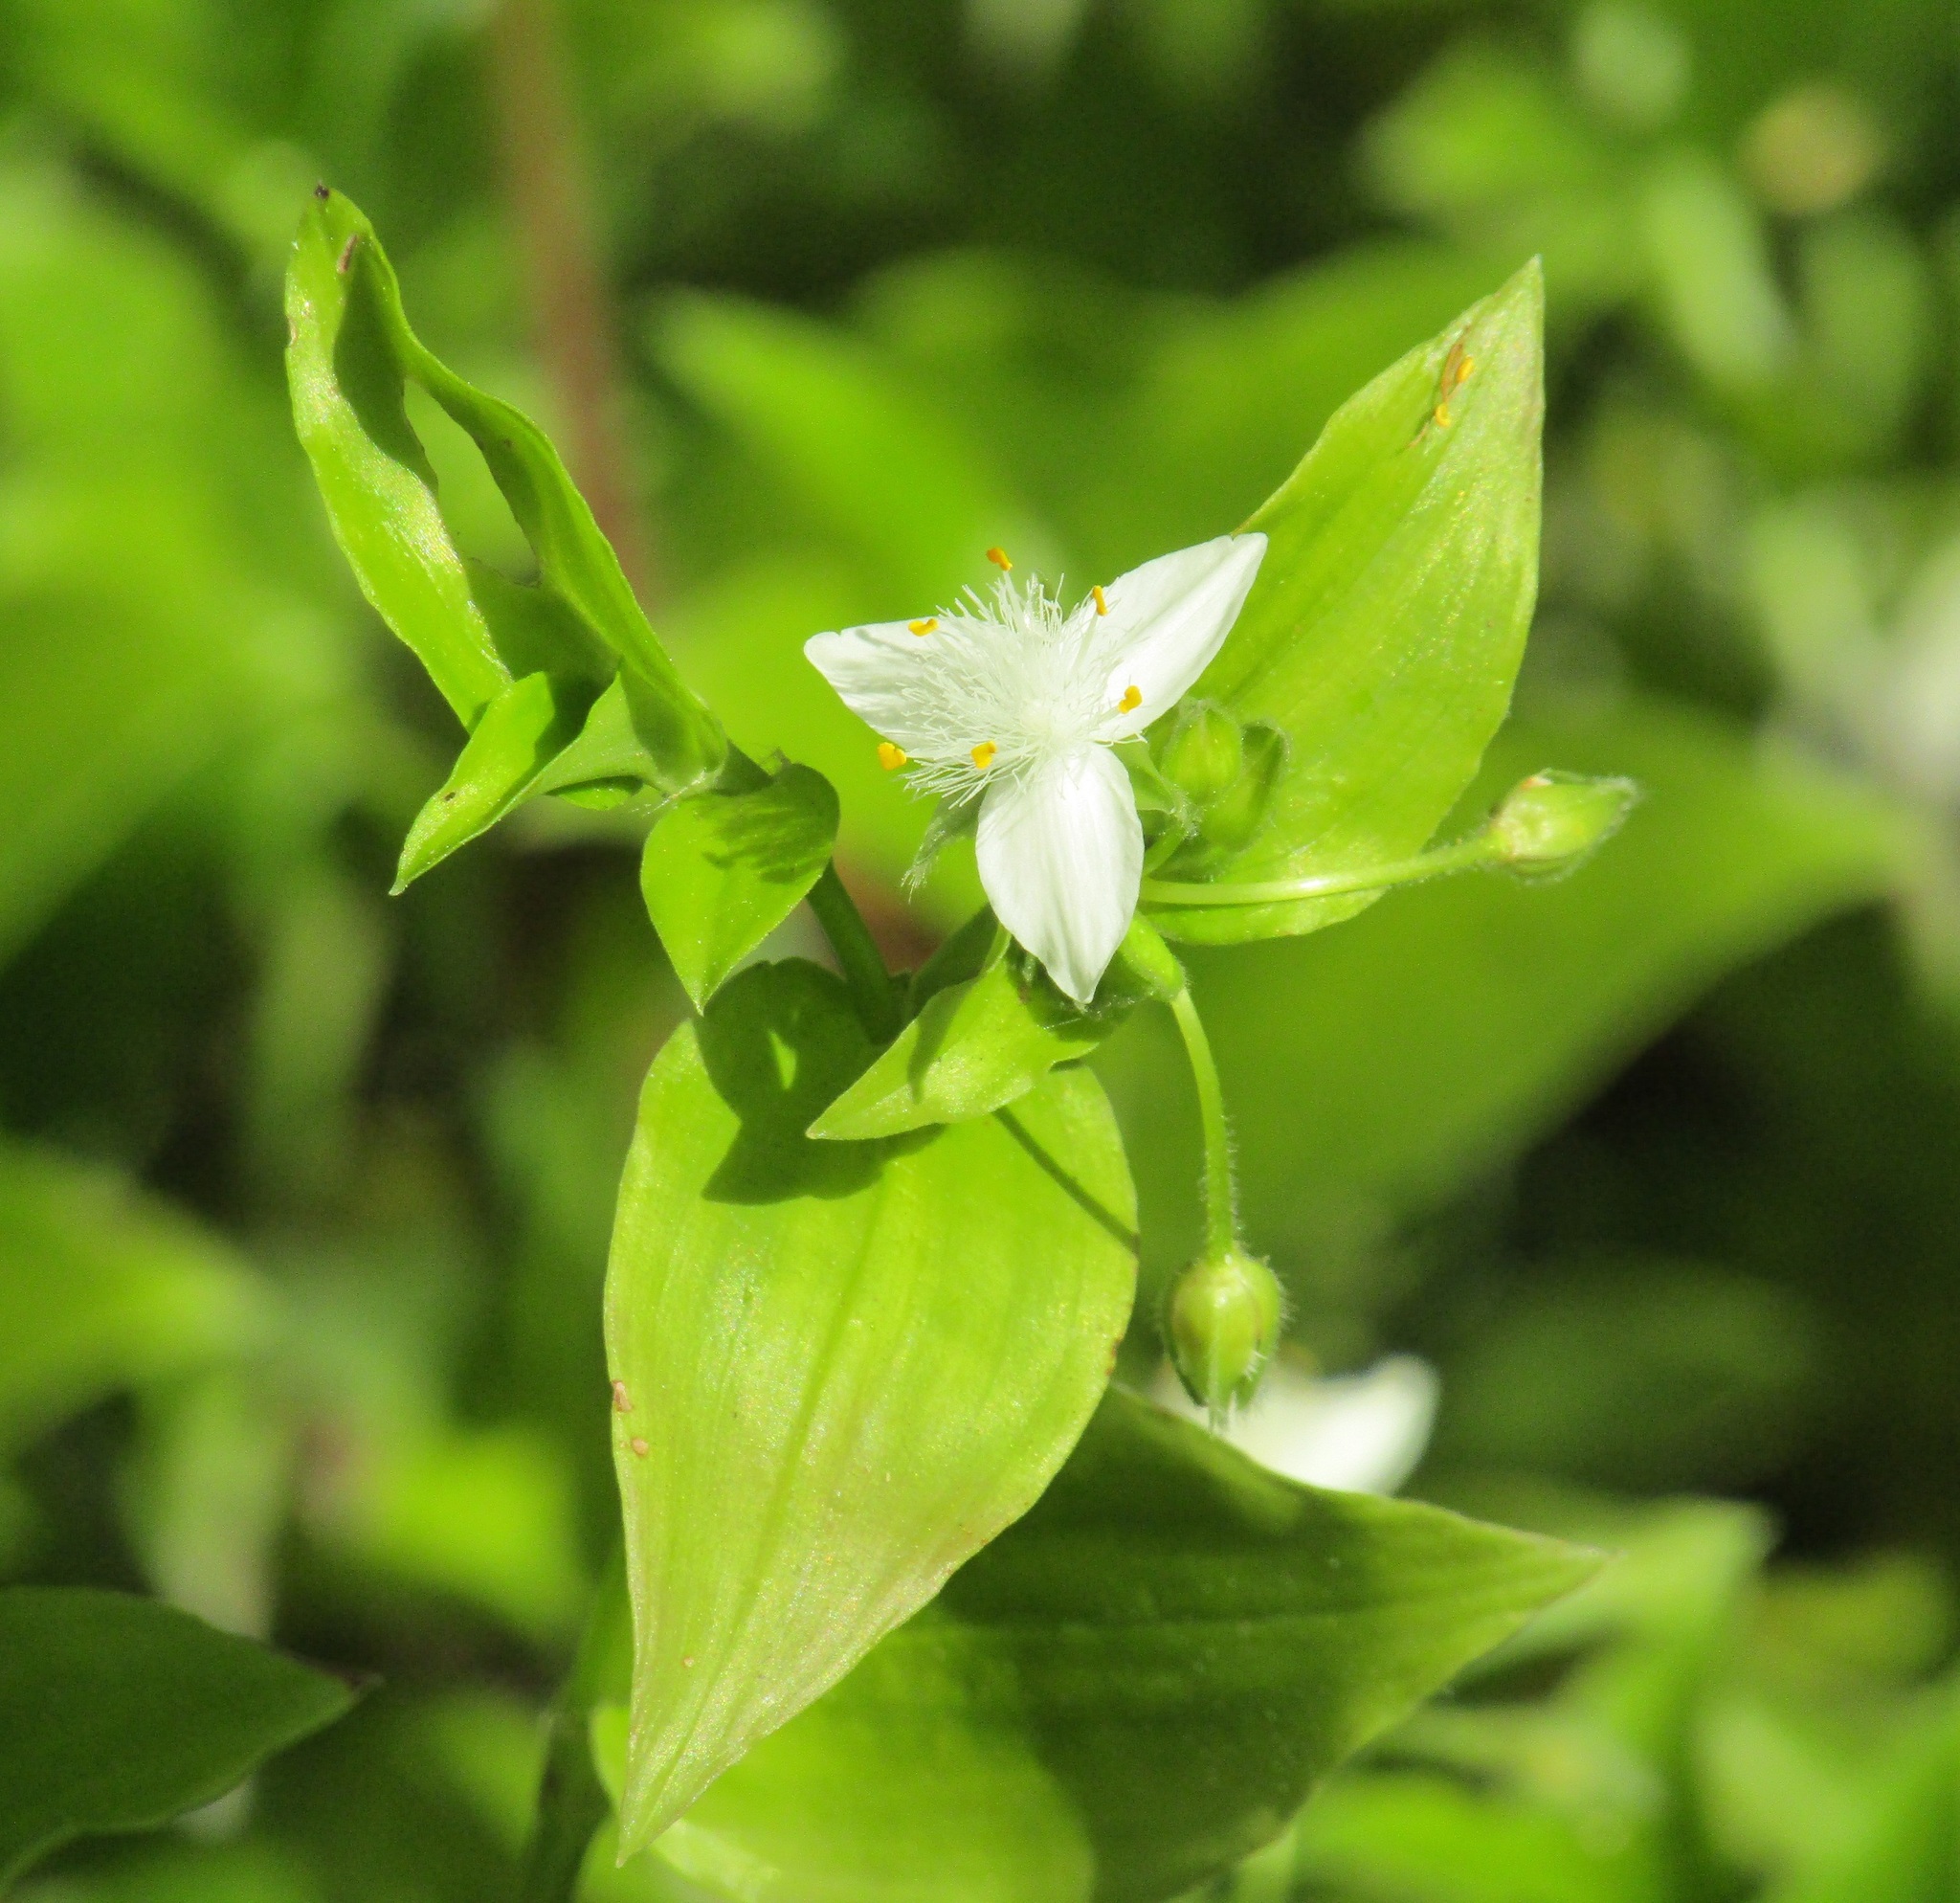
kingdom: Plantae
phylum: Tracheophyta
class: Liliopsida
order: Commelinales
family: Commelinaceae
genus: Tradescantia
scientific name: Tradescantia fluminensis
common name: Wandering-jew
